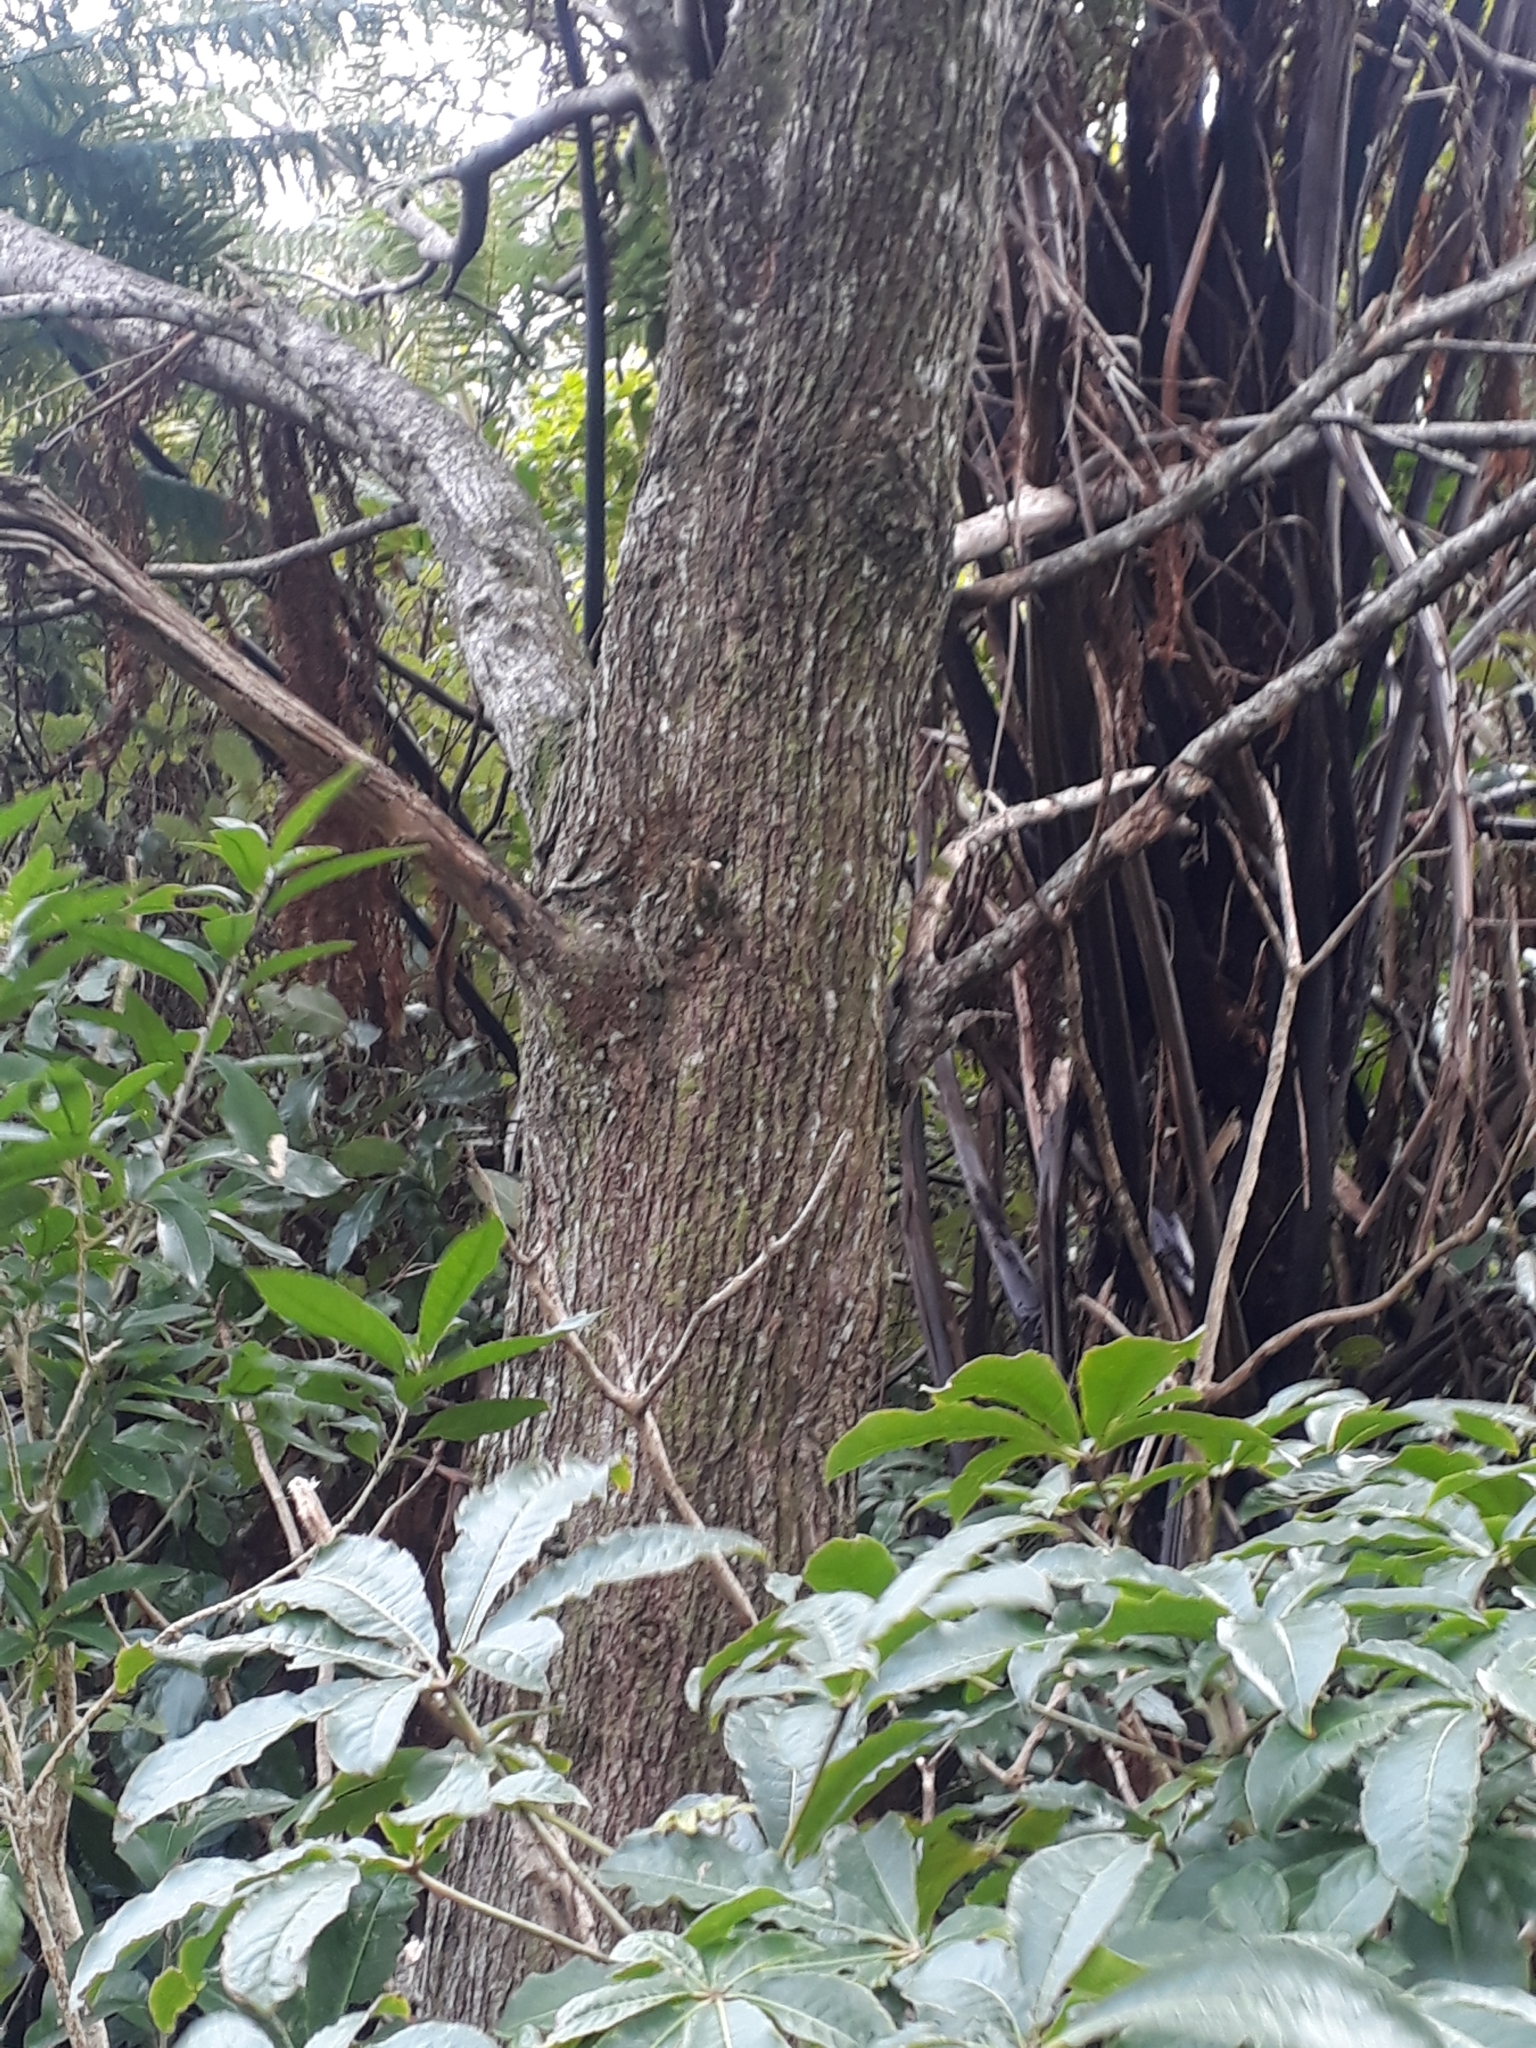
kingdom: Plantae
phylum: Tracheophyta
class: Magnoliopsida
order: Fabales
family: Fabaceae
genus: Acacia
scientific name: Acacia melanoxylon
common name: Blackwood
